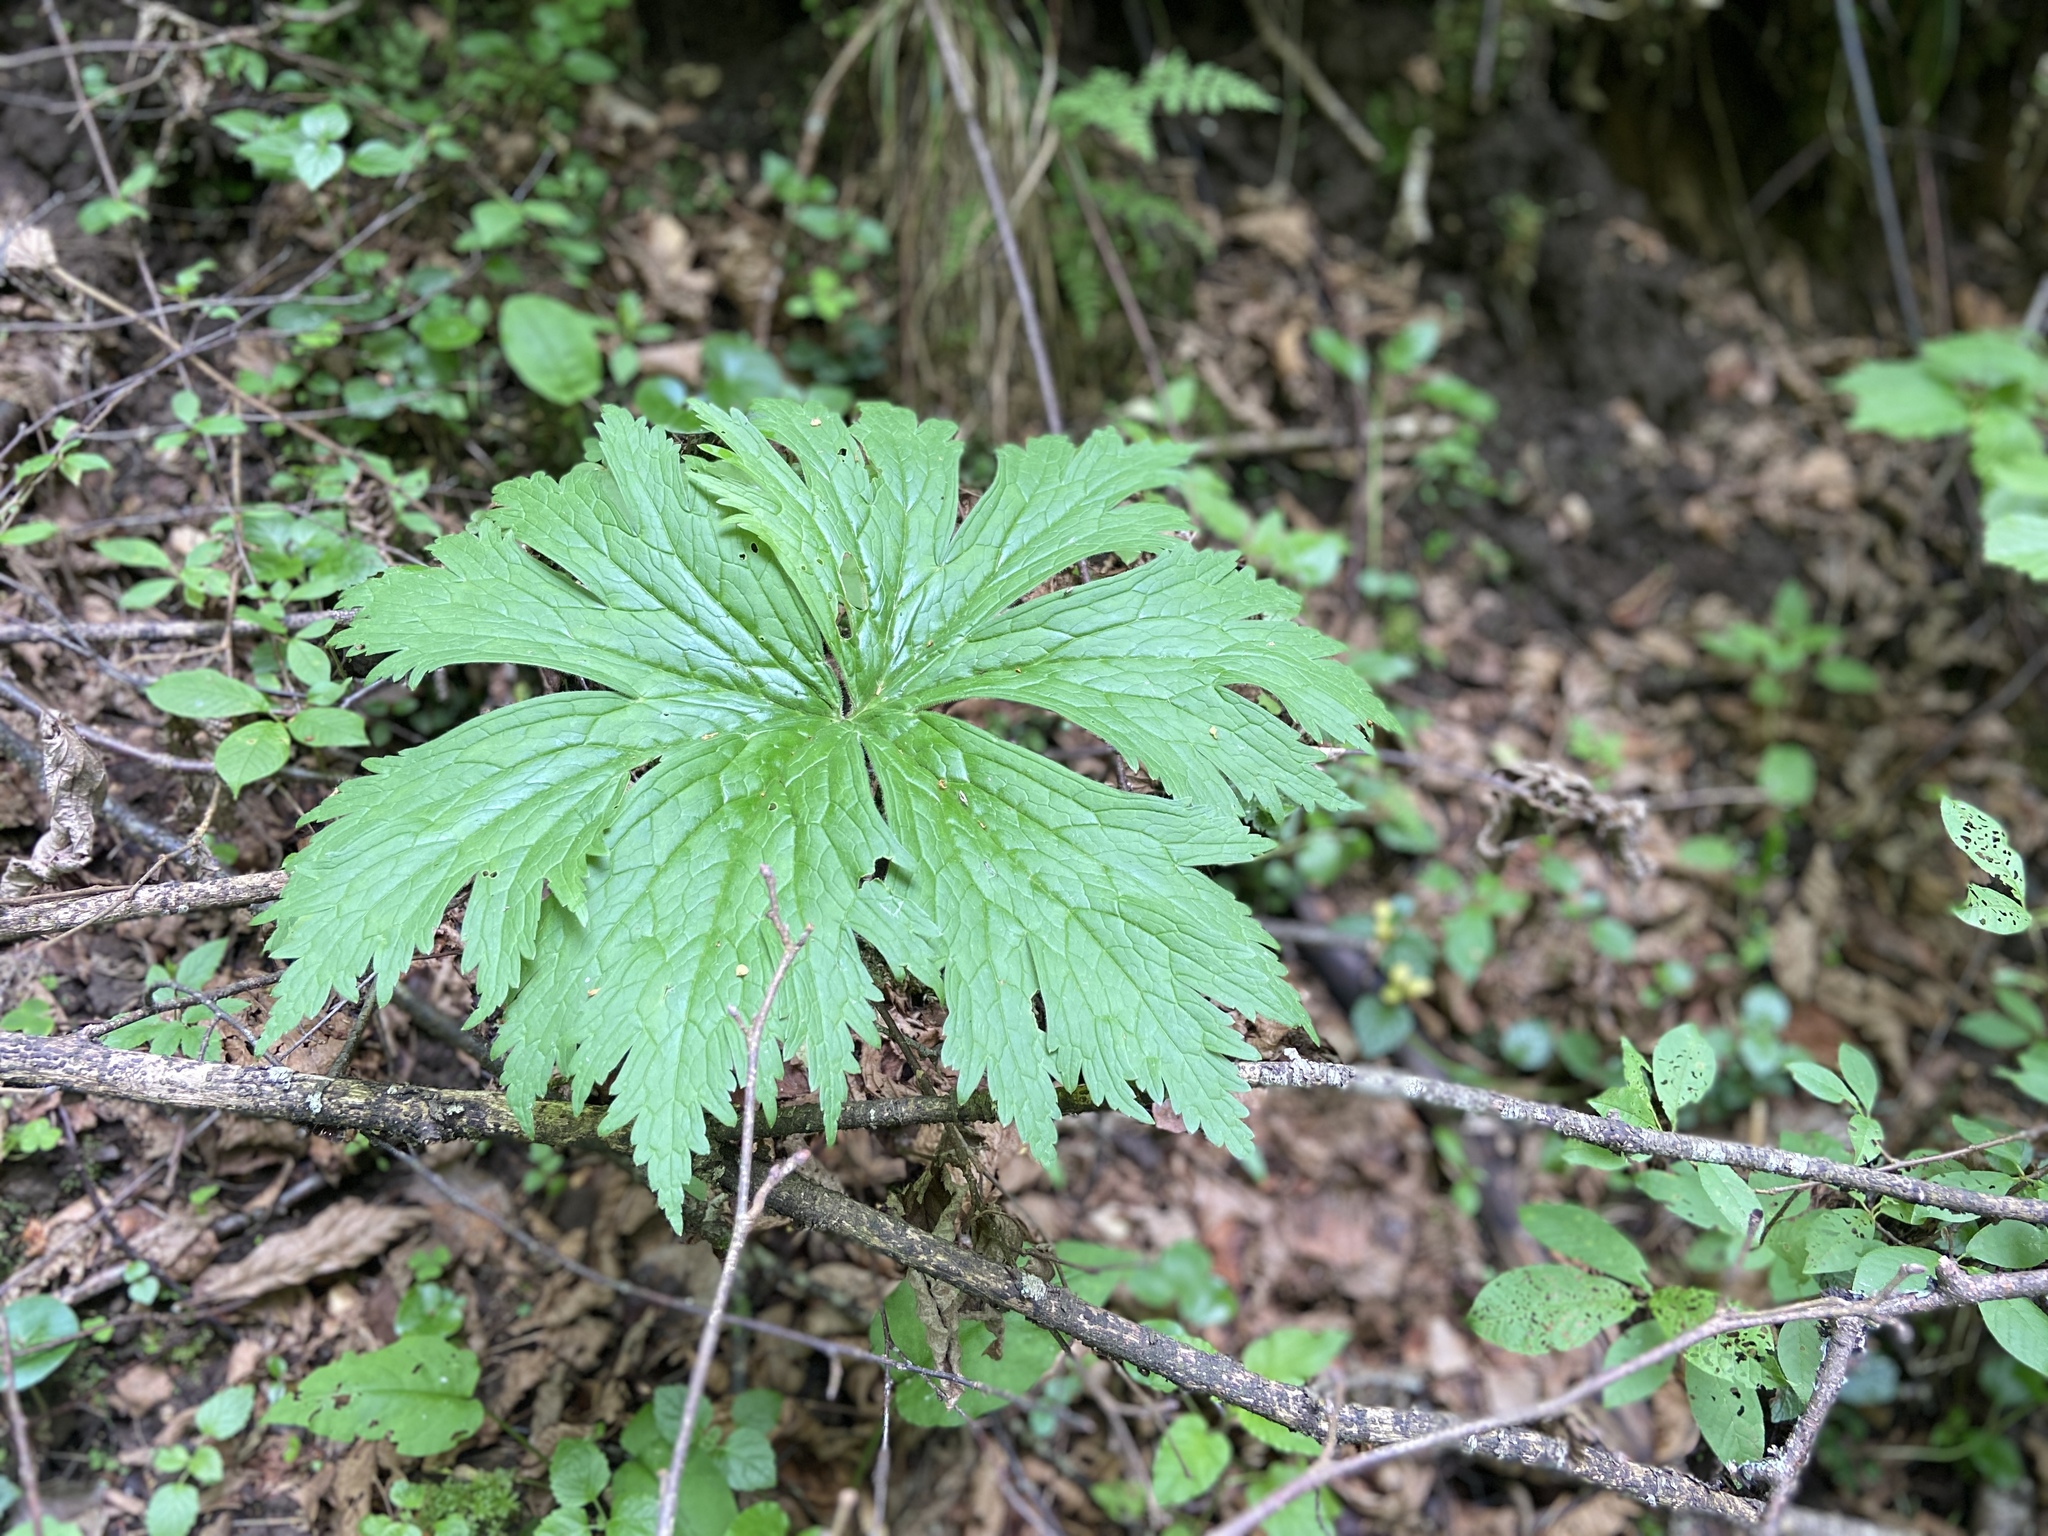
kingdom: Plantae
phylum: Tracheophyta
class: Magnoliopsida
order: Ranunculales
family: Ranunculaceae
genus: Aconitum
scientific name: Aconitum septentrionale
